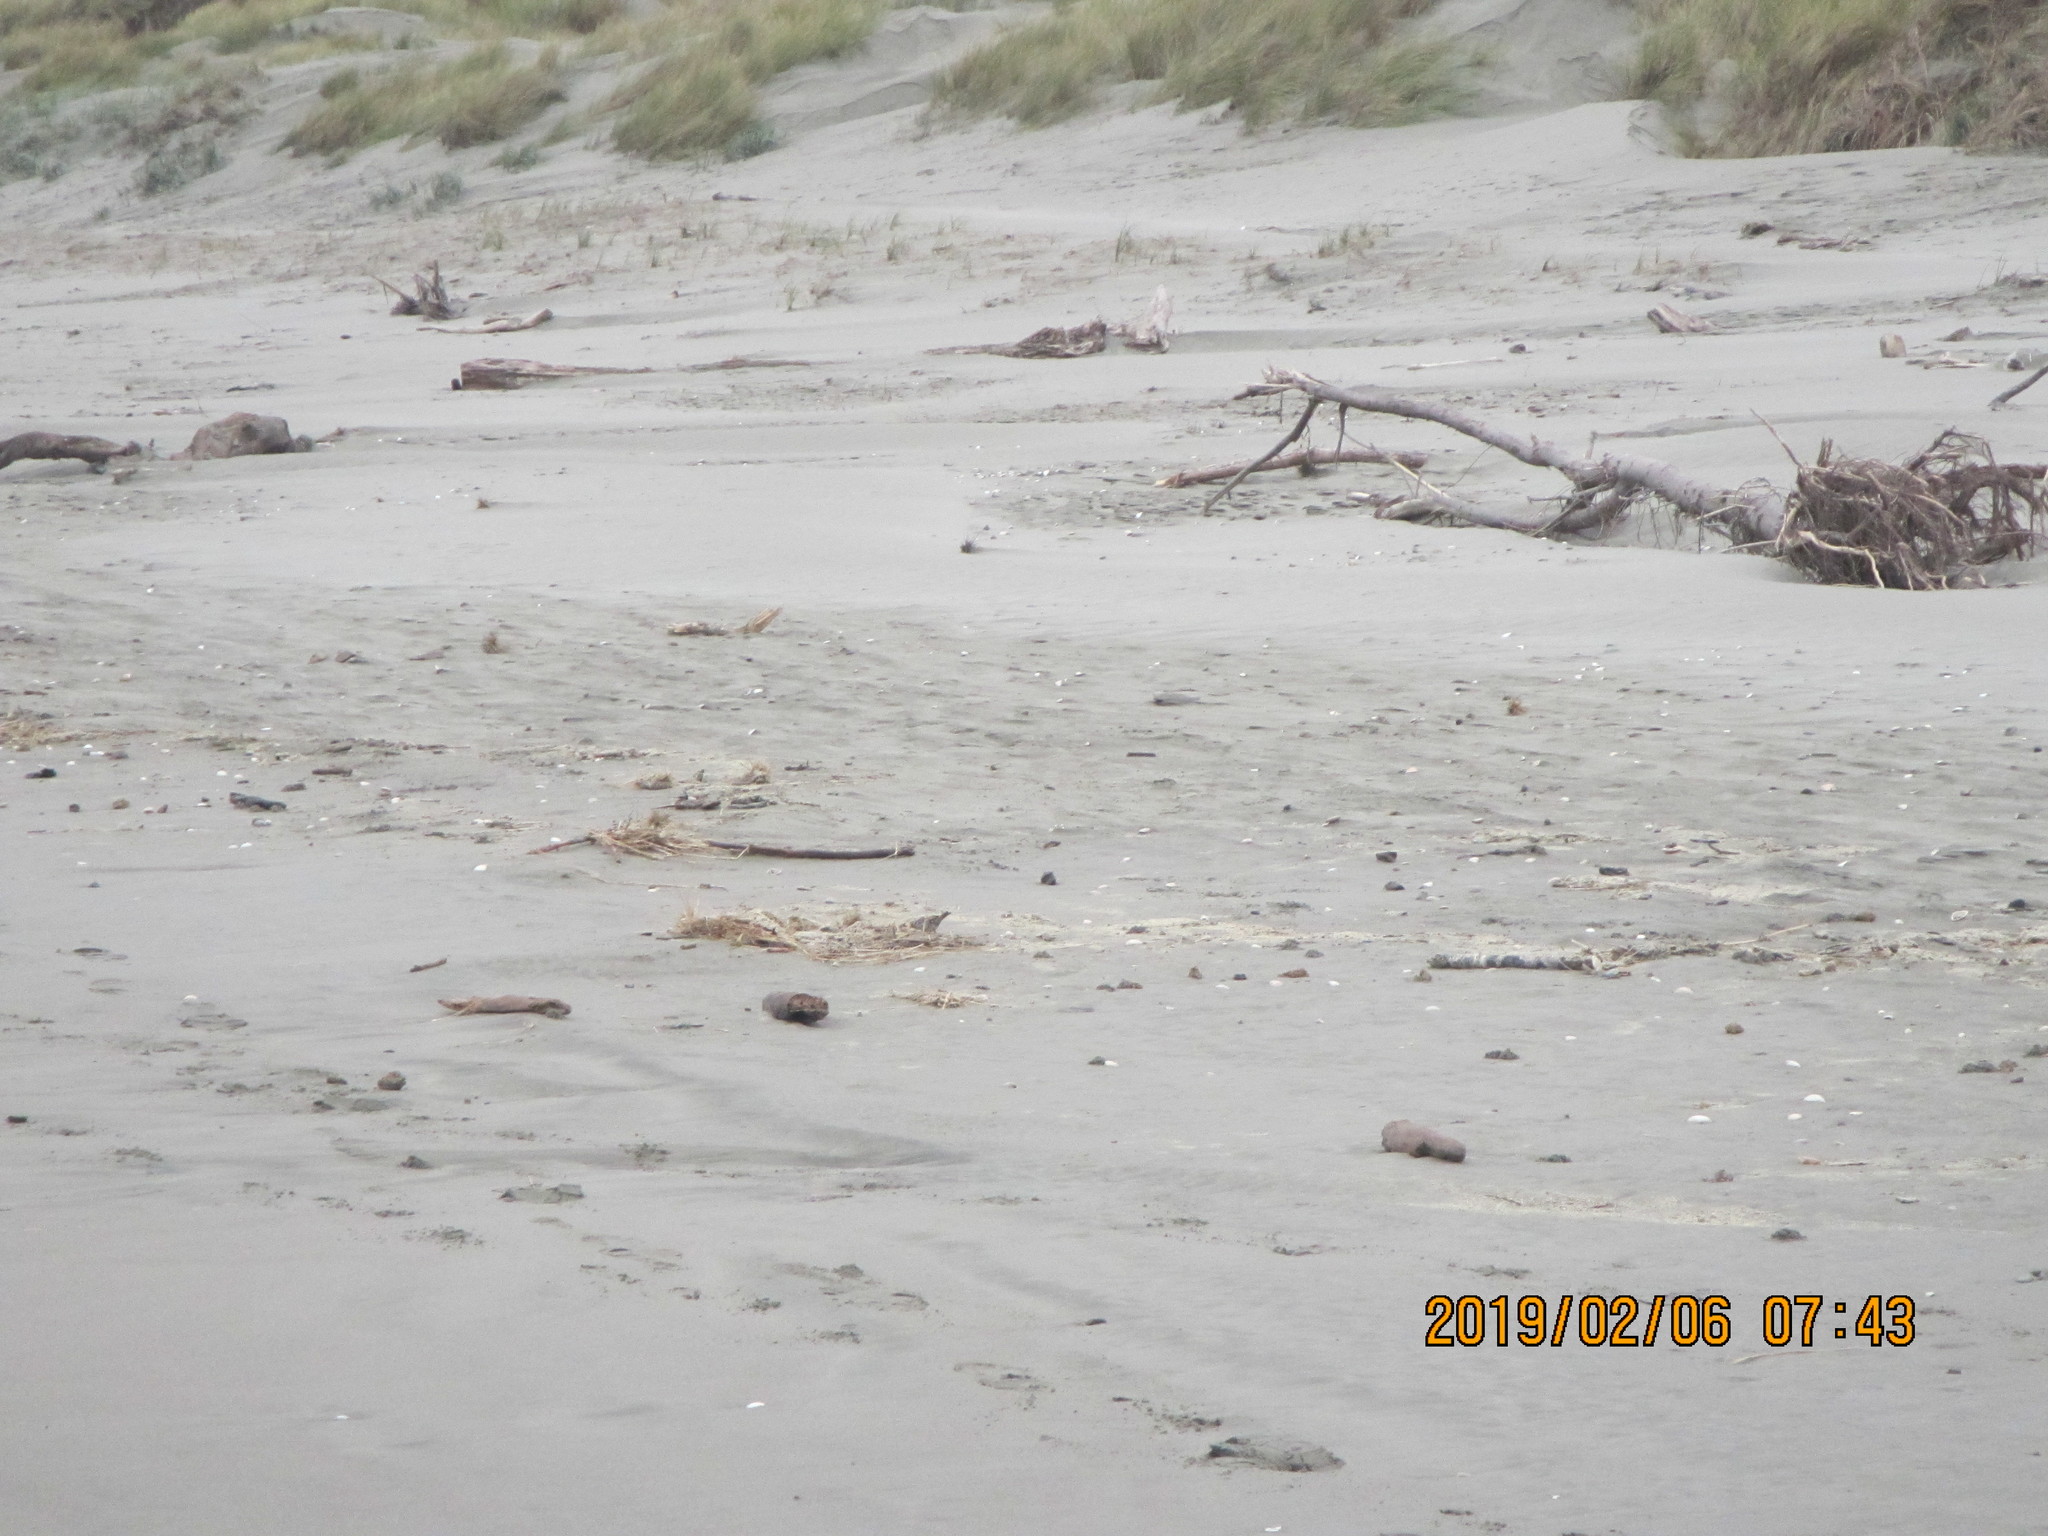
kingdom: Animalia
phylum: Chordata
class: Aves
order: Passeriformes
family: Motacillidae
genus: Anthus
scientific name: Anthus novaeseelandiae
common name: New zealand pipit
